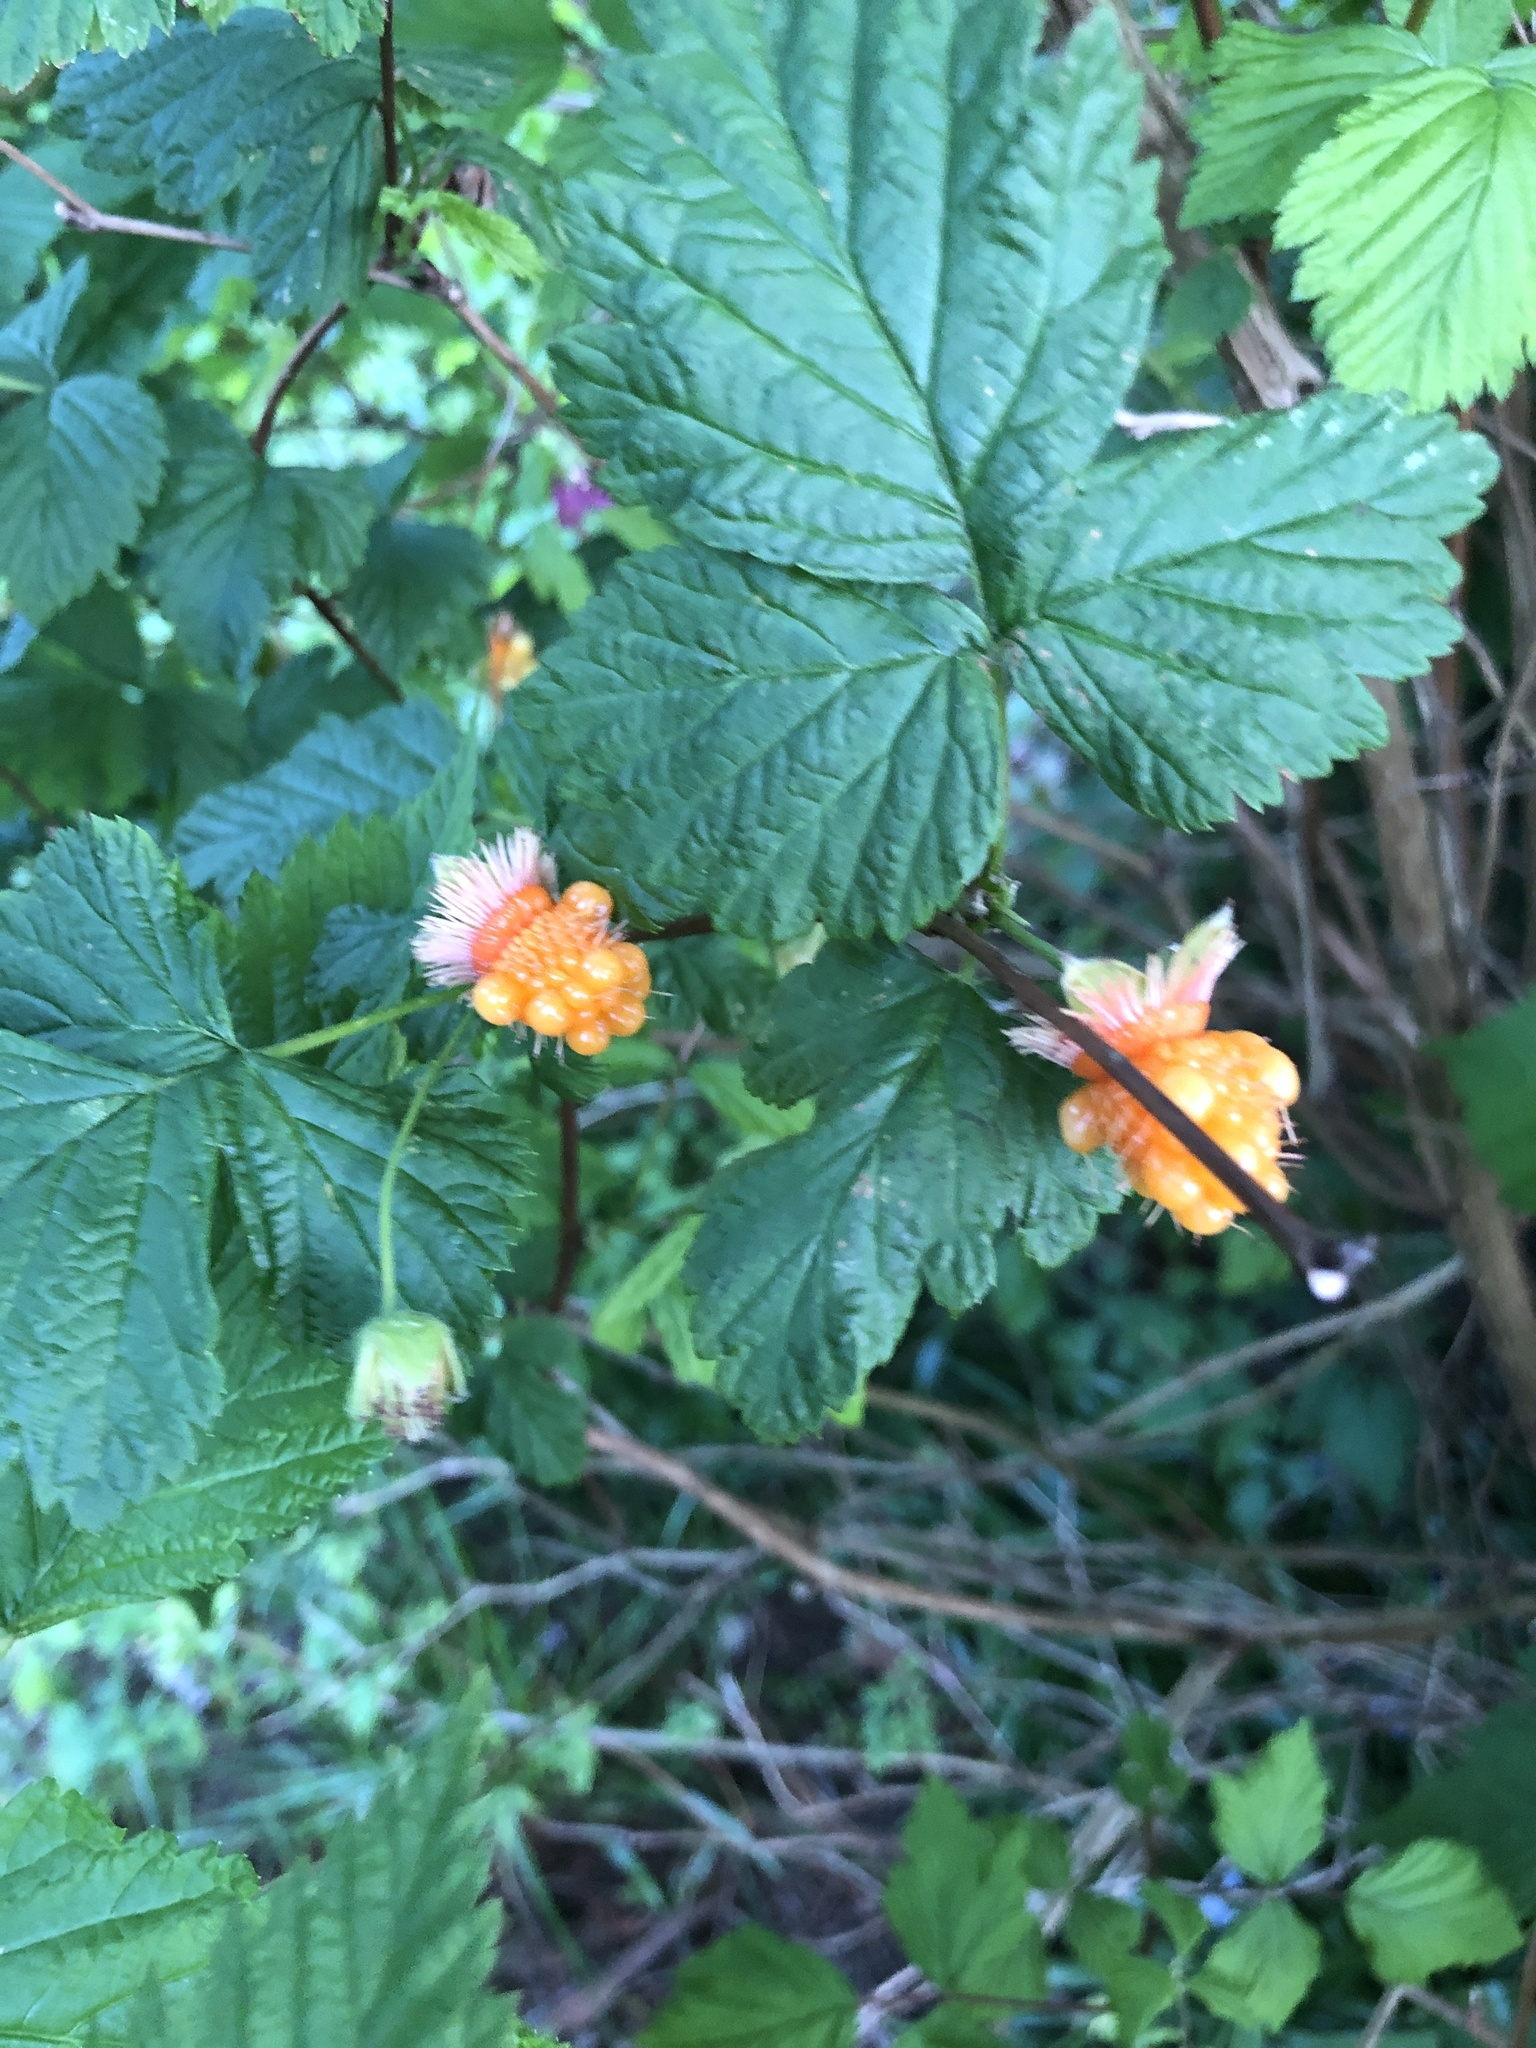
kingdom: Plantae
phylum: Tracheophyta
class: Magnoliopsida
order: Rosales
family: Rosaceae
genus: Rubus
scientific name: Rubus spectabilis
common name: Salmonberry
